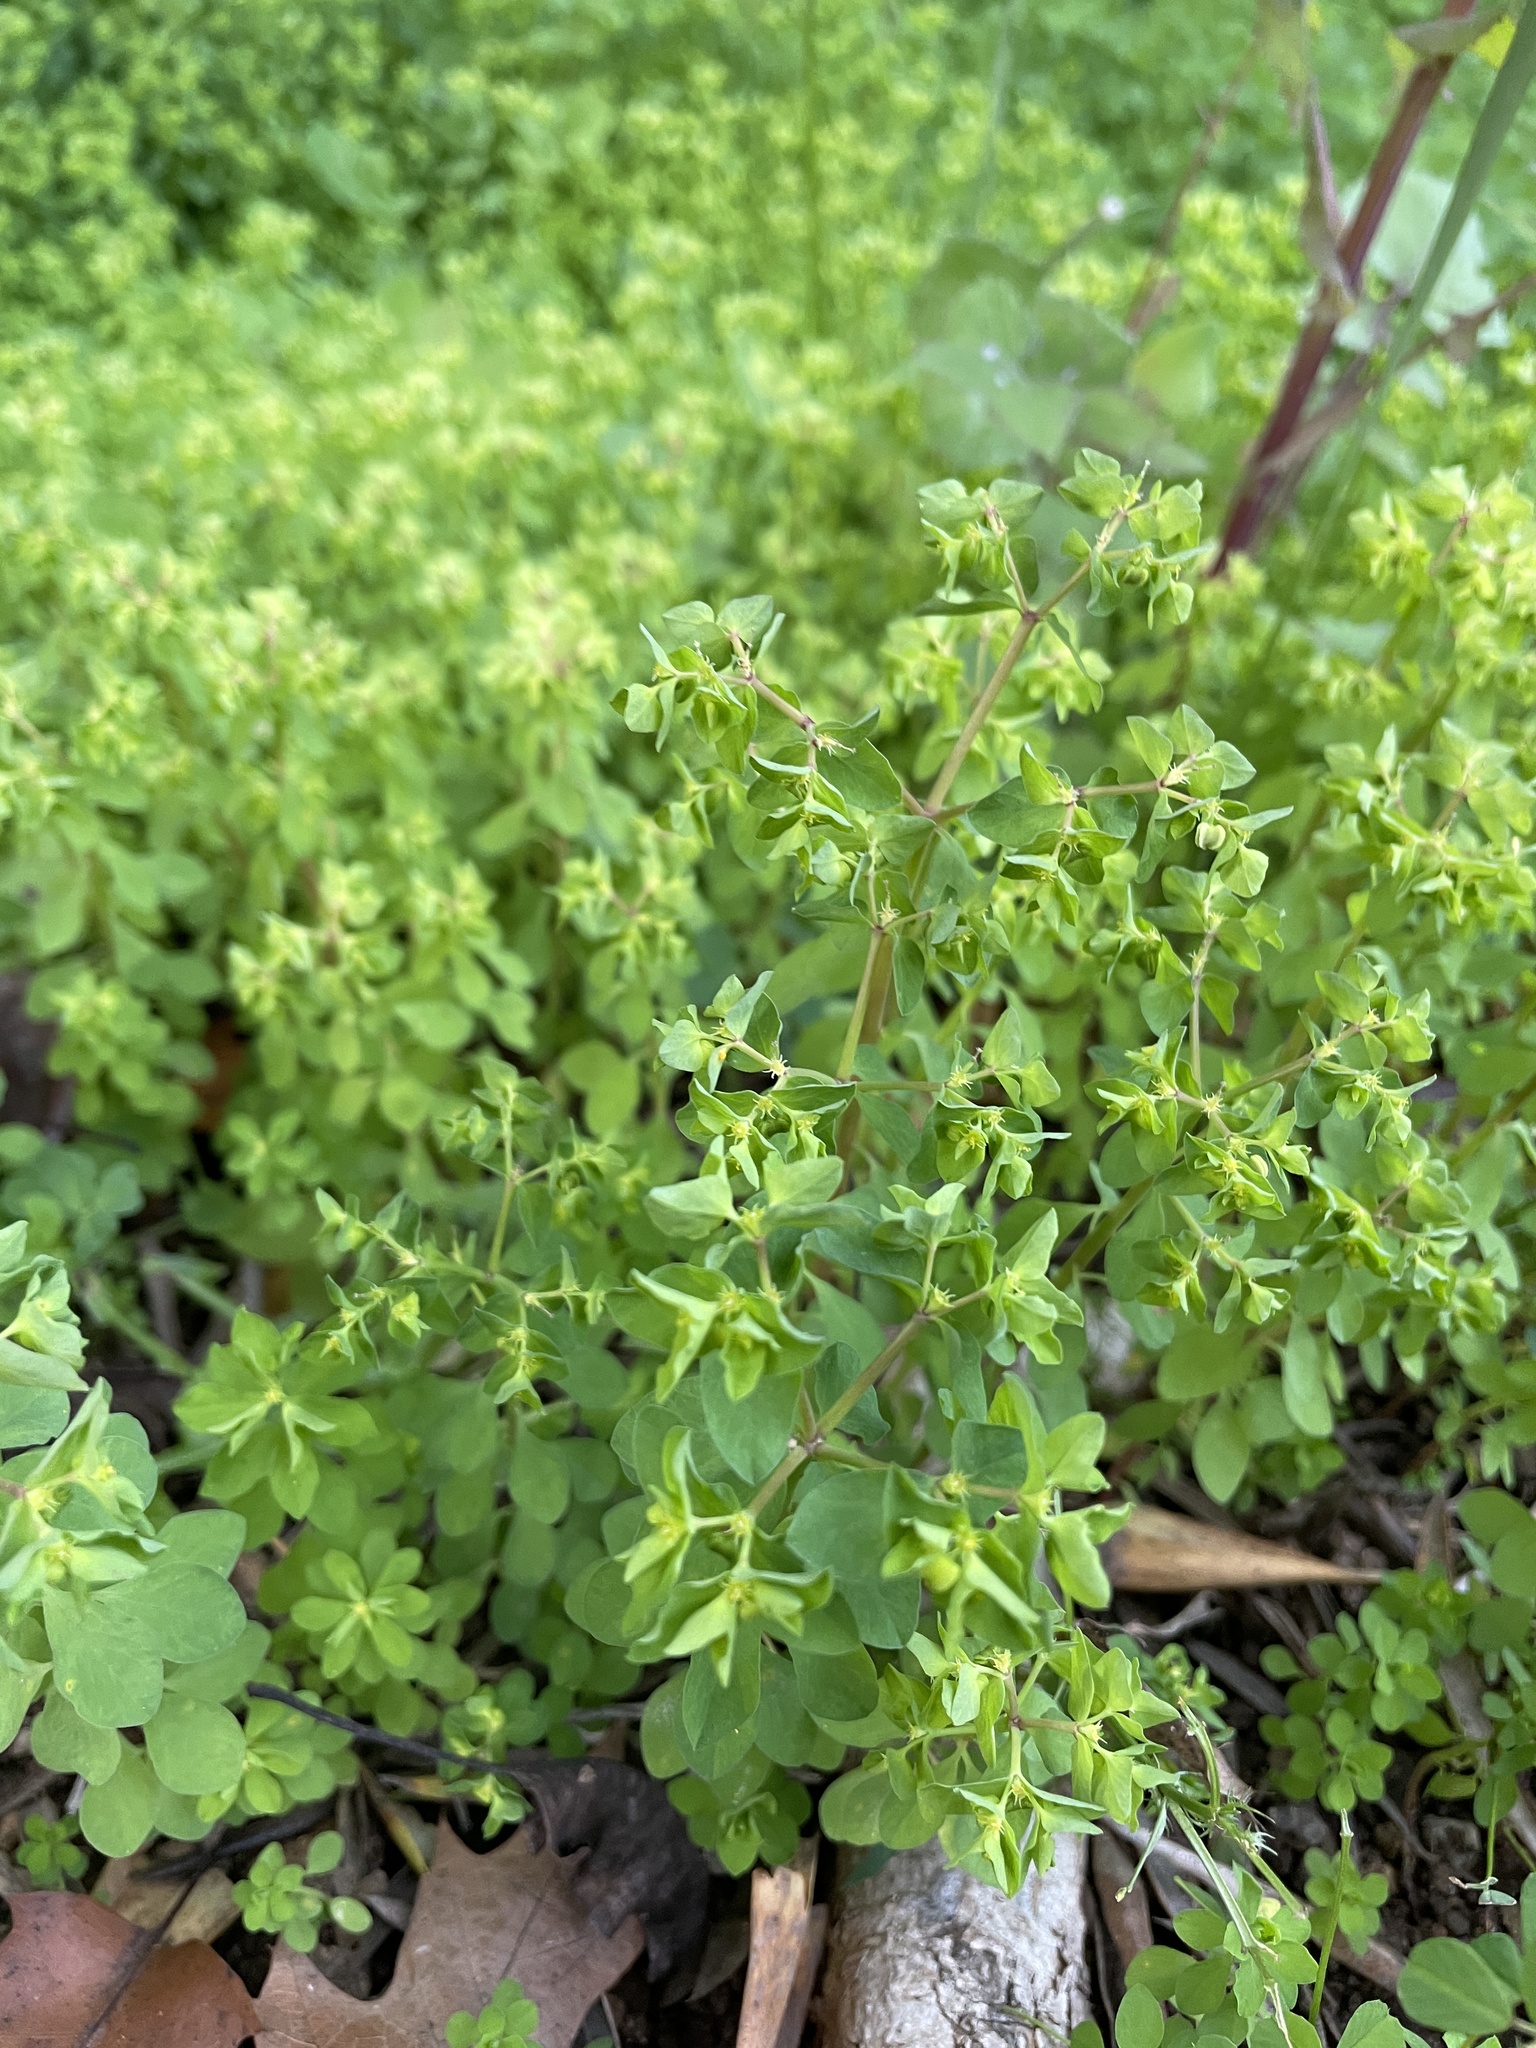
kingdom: Plantae
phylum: Tracheophyta
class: Magnoliopsida
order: Malpighiales
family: Euphorbiaceae
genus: Euphorbia
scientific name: Euphorbia peplus
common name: Petty spurge
